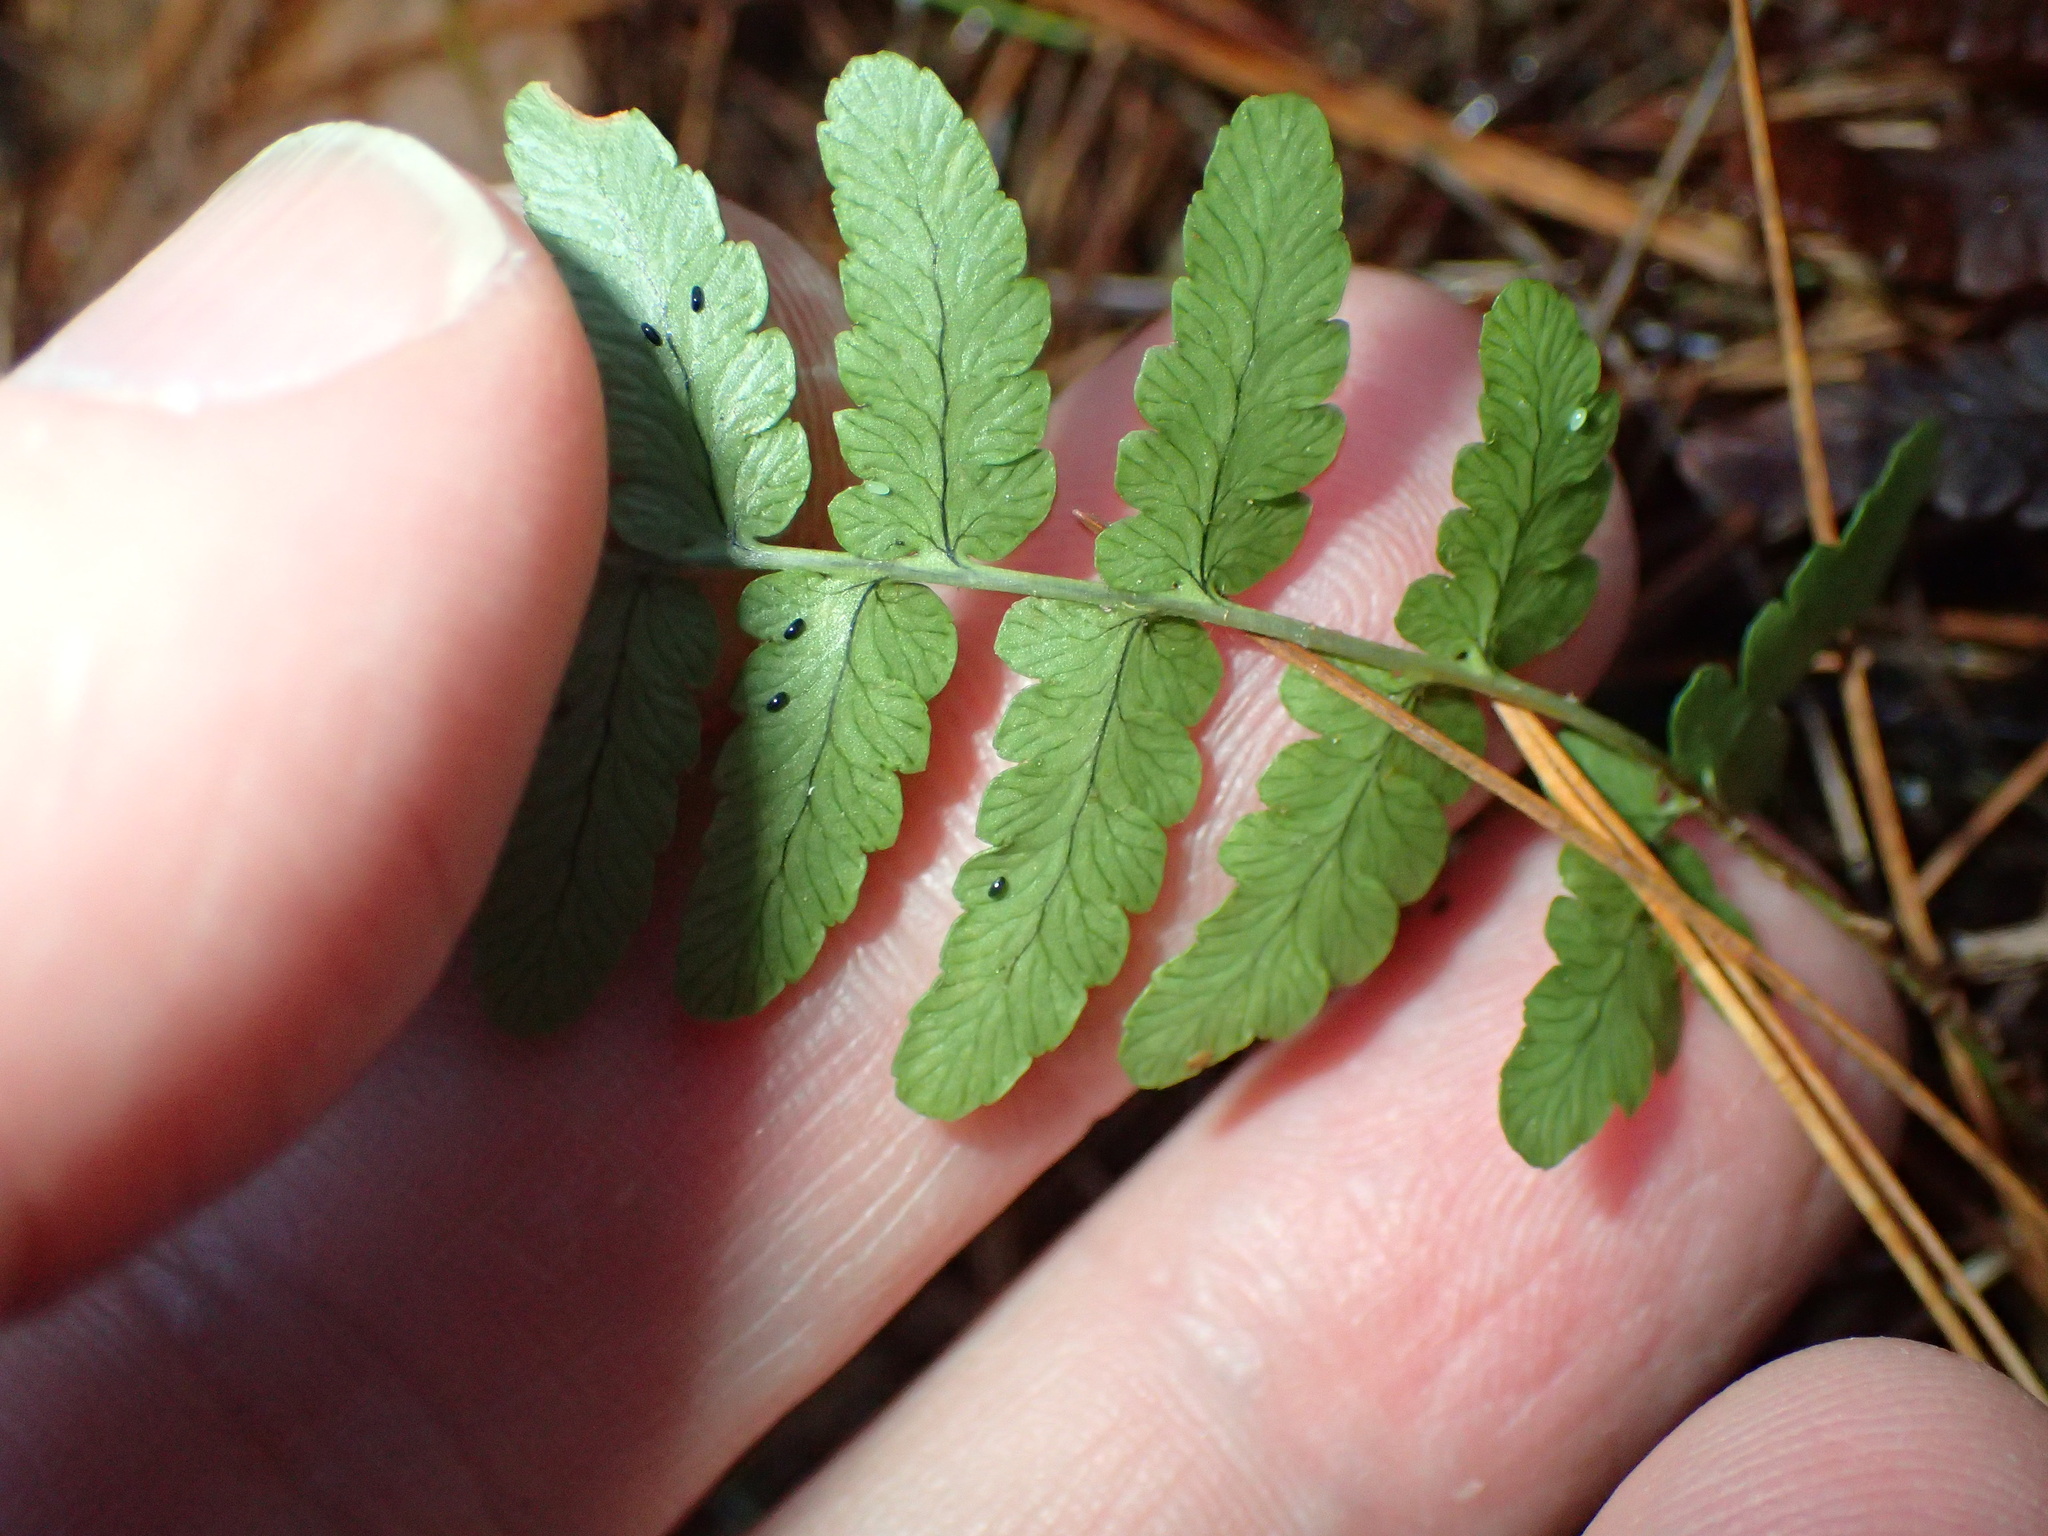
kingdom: Plantae
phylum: Tracheophyta
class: Polypodiopsida
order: Polypodiales
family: Dryopteridaceae
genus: Dryopteris
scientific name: Dryopteris marginalis
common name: Marginal wood fern
